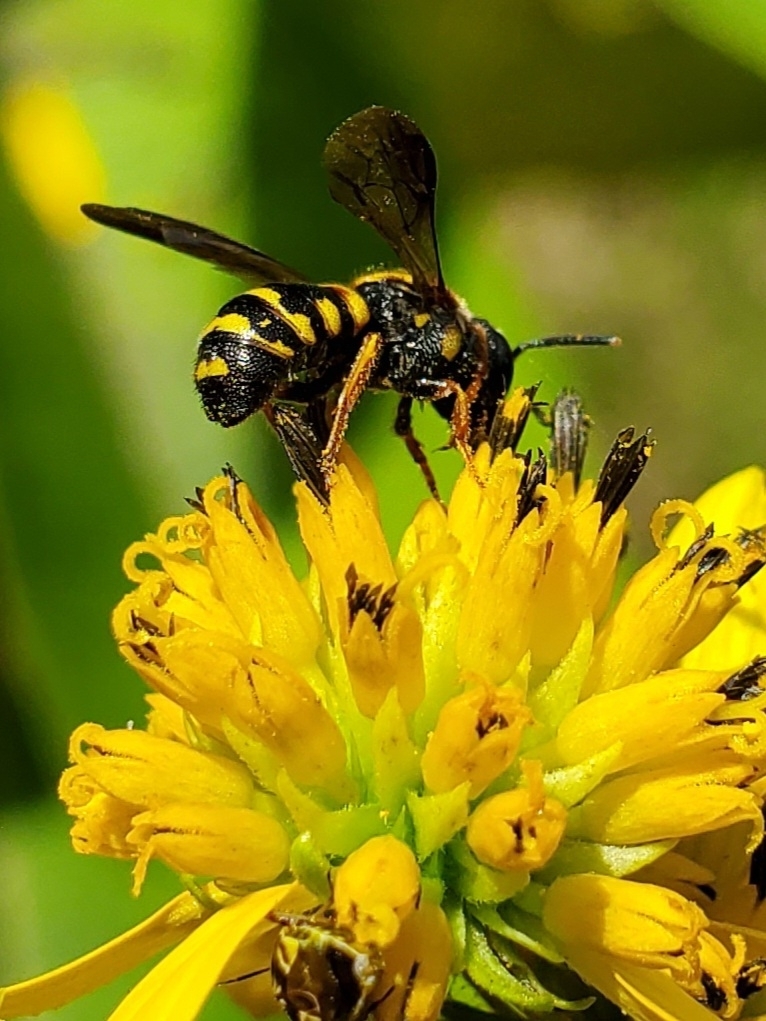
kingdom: Animalia
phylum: Arthropoda
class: Insecta
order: Hymenoptera
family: Megachilidae
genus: Stelis
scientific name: Stelis louisae
